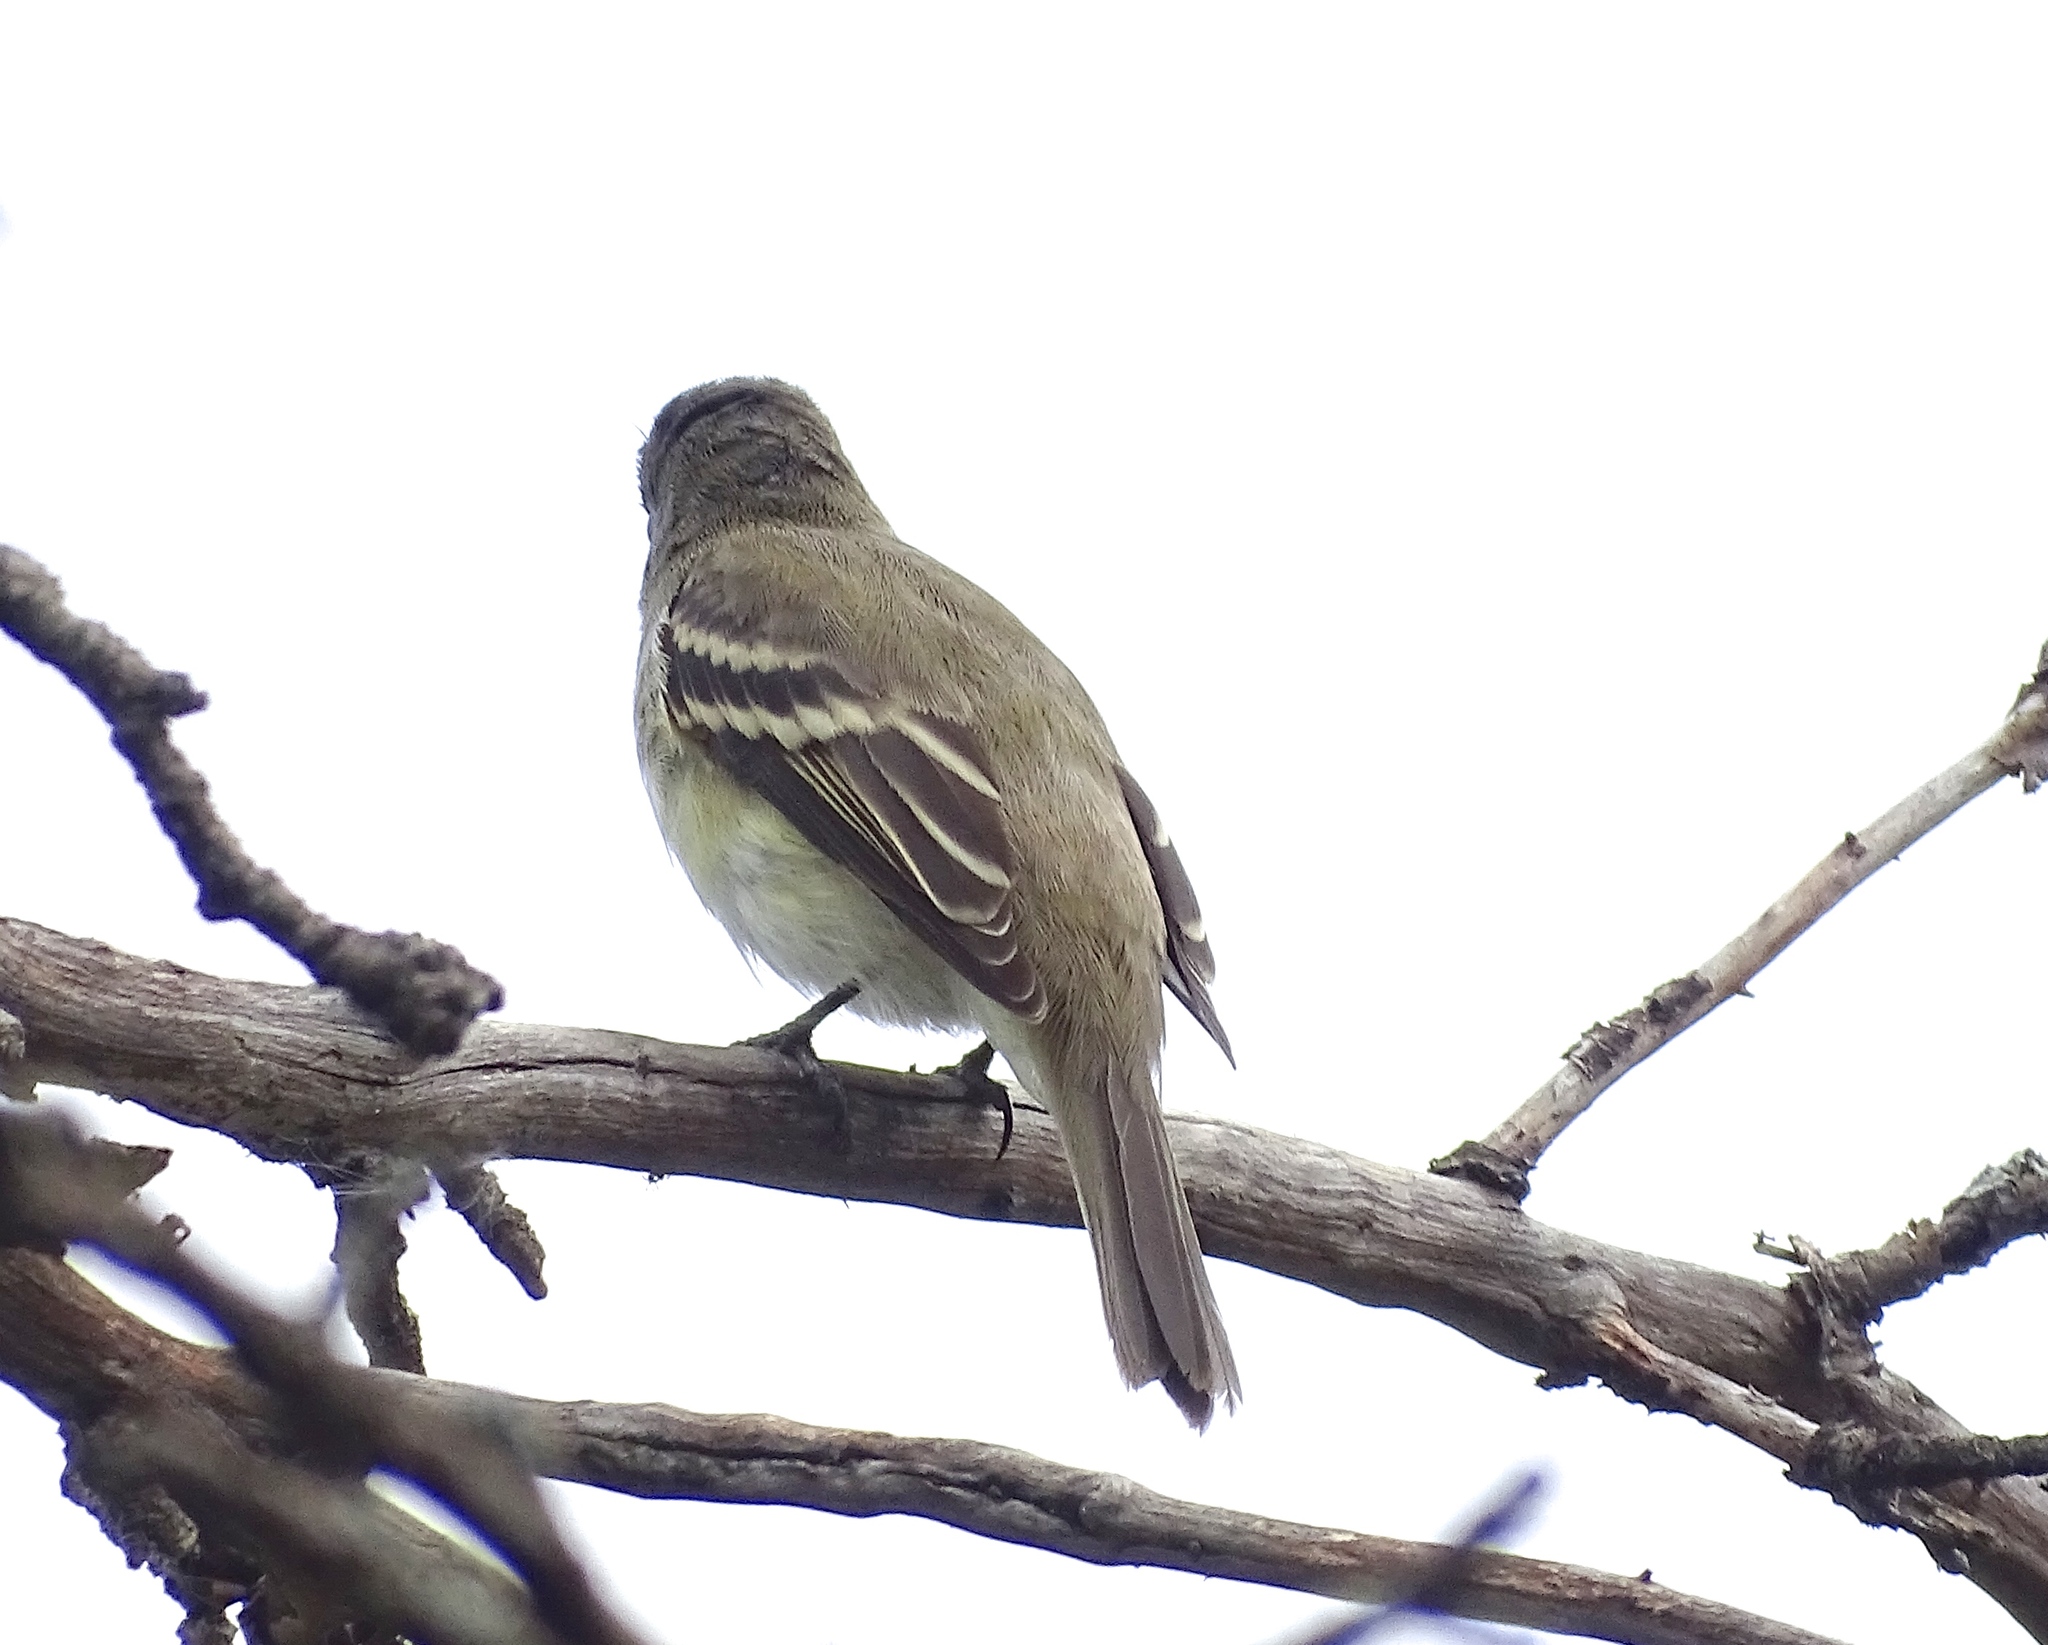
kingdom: Animalia
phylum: Chordata
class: Aves
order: Passeriformes
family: Tyrannidae
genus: Empidonax
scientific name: Empidonax minimus
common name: Least flycatcher
